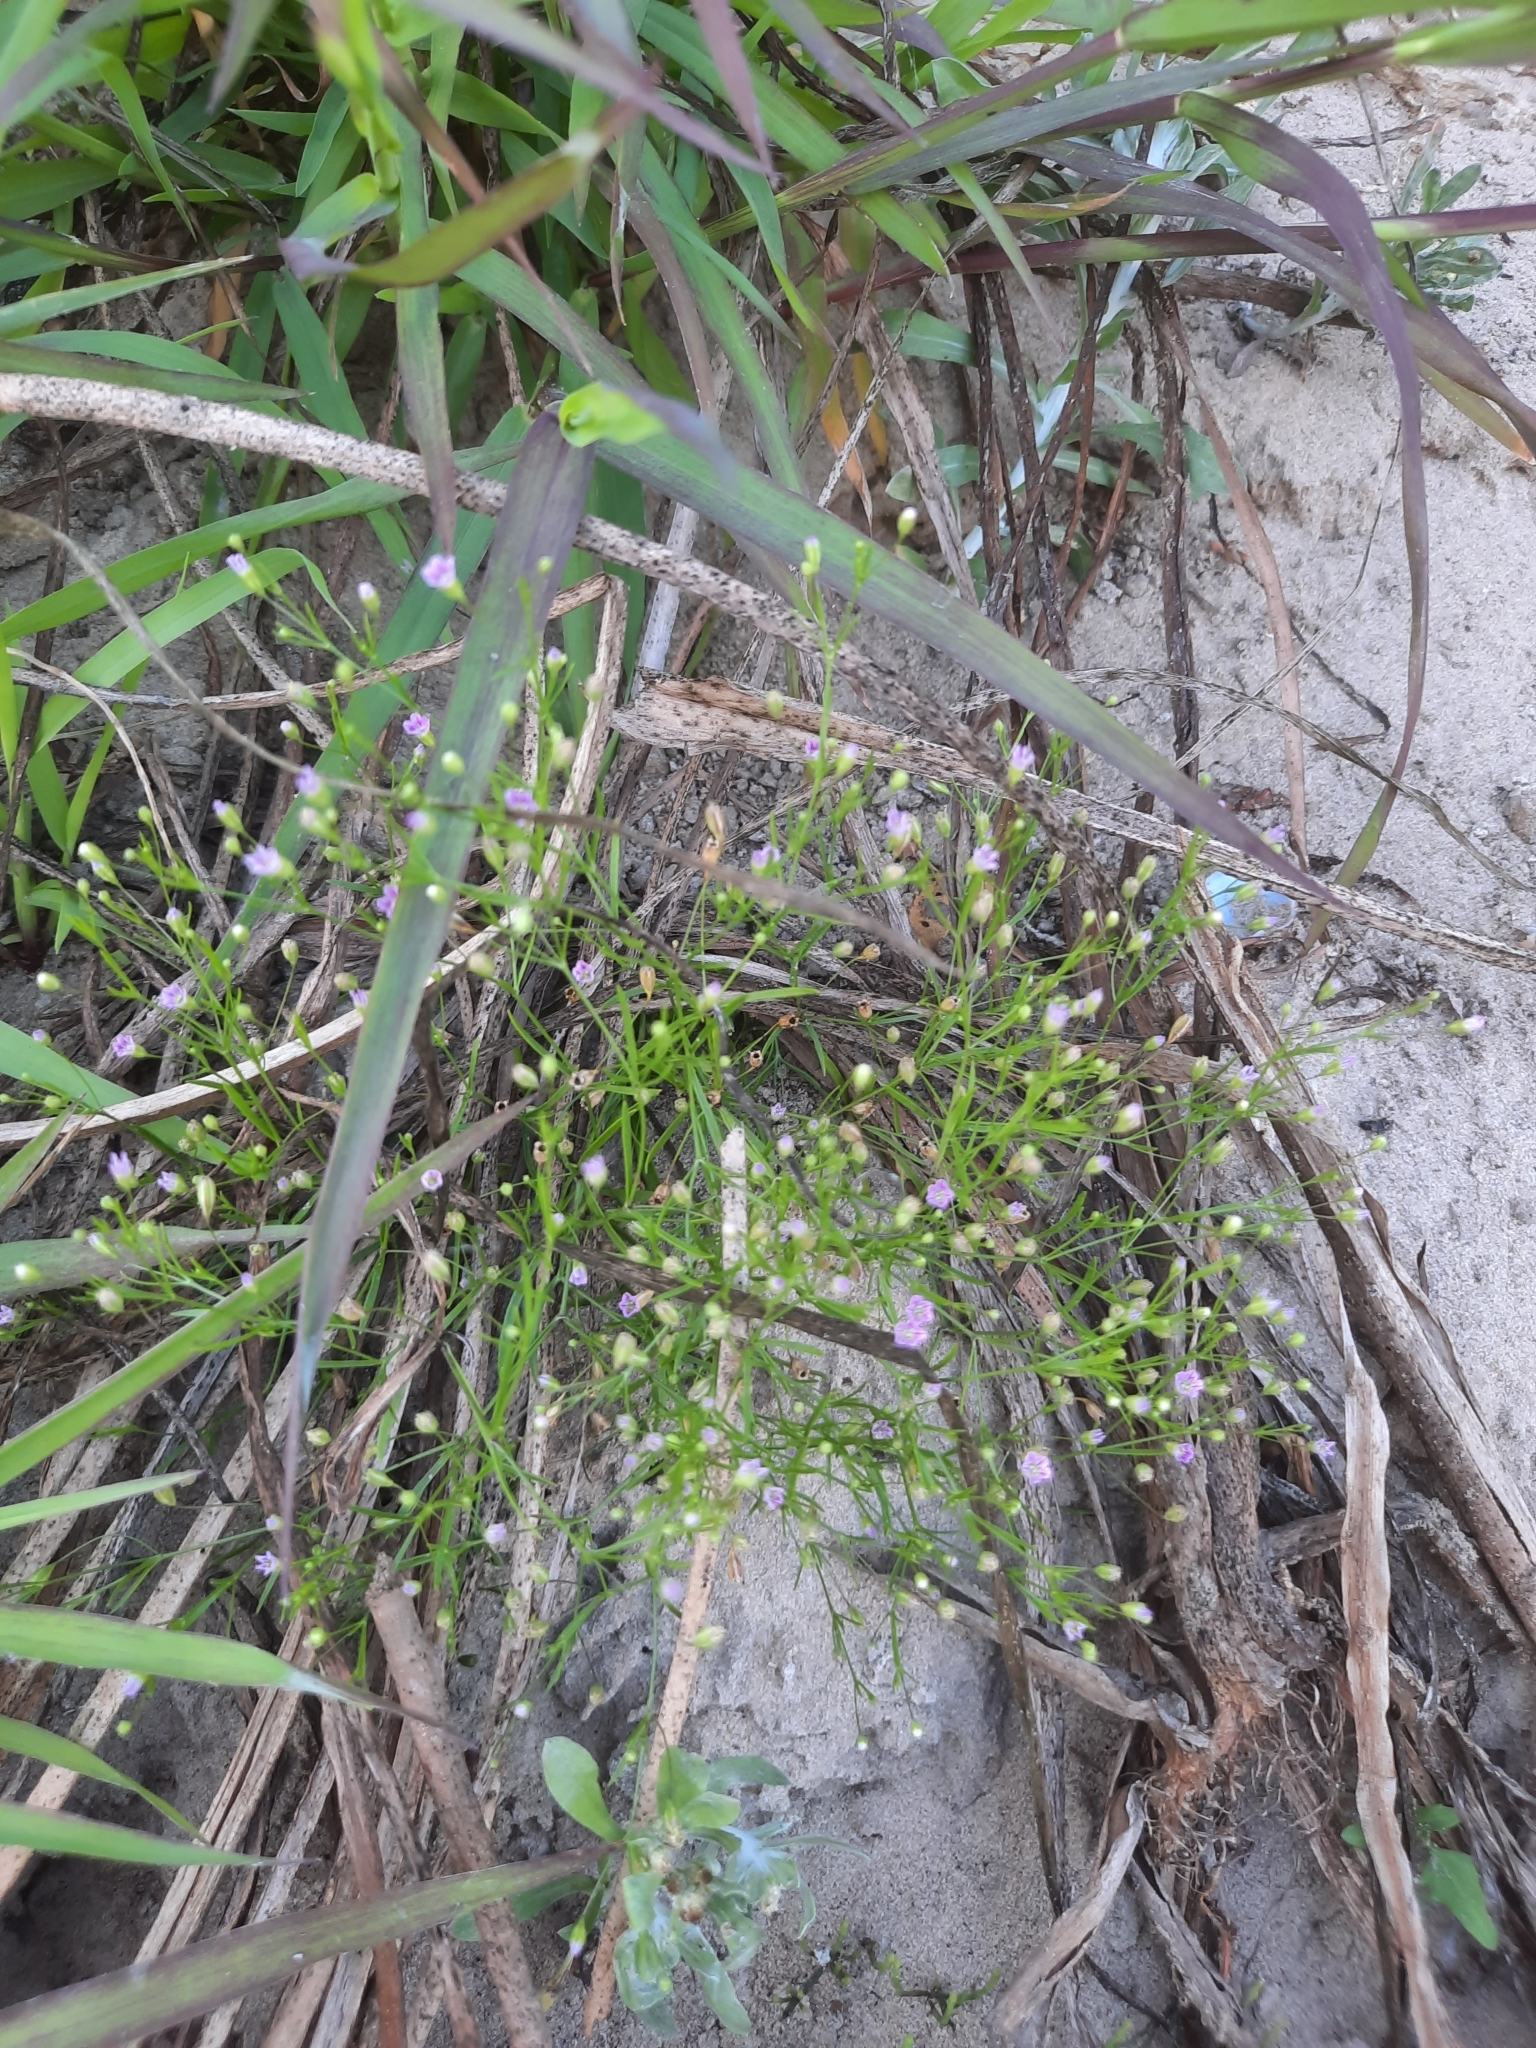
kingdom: Plantae
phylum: Tracheophyta
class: Magnoliopsida
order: Caryophyllales
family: Caryophyllaceae
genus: Psammophiliella
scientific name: Psammophiliella muralis
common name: Cushion baby's-breath
